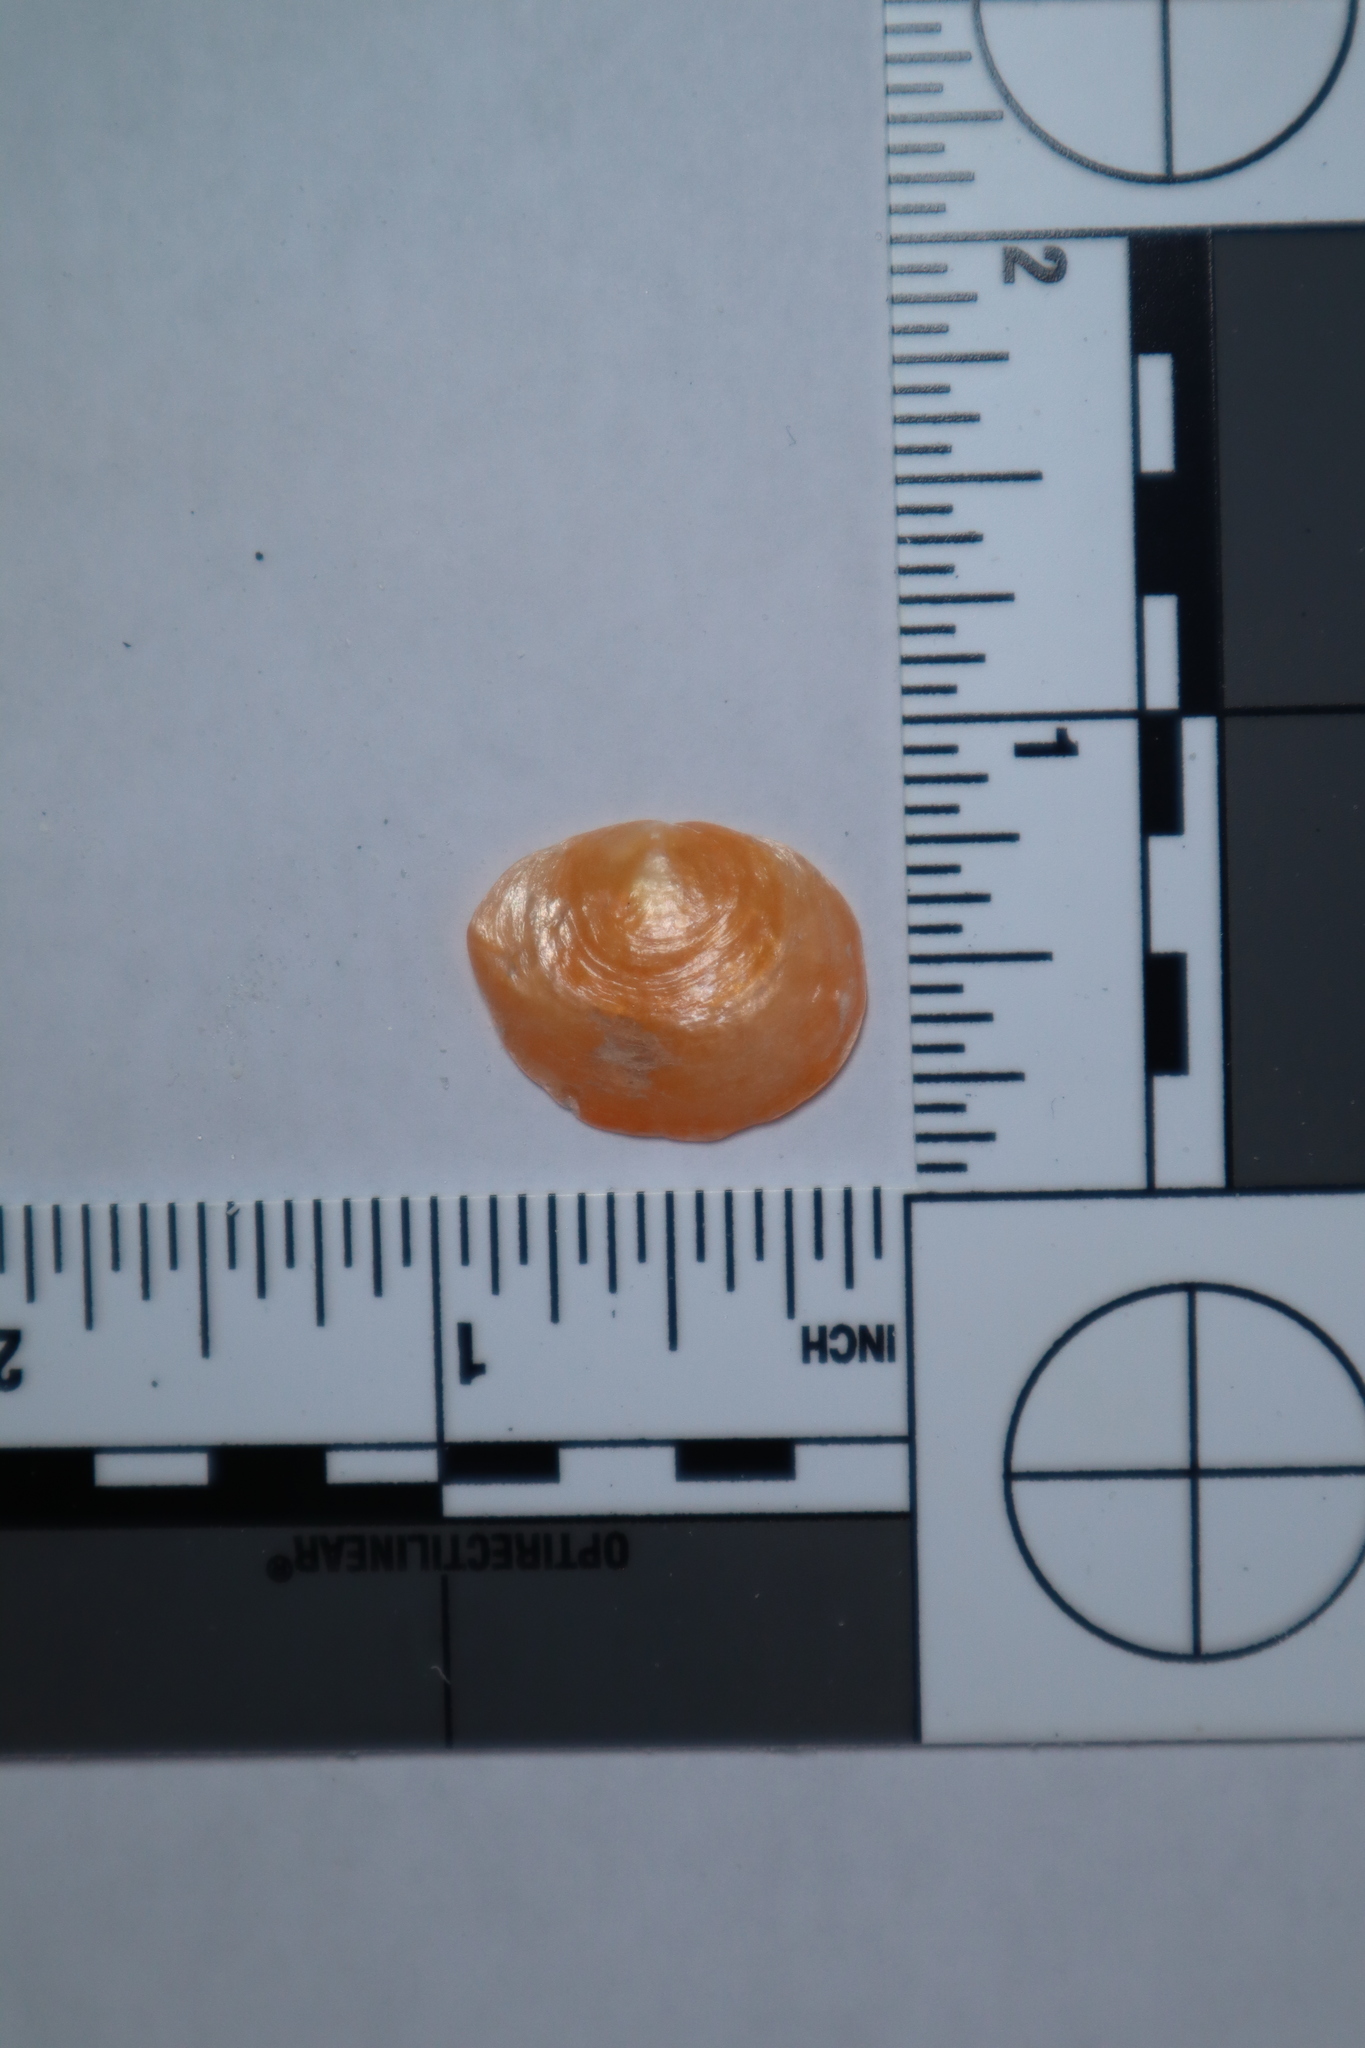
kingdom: Animalia
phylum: Mollusca
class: Bivalvia
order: Pectinida
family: Anomiidae
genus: Anomia
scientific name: Anomia simplex
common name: Common jingle shell
